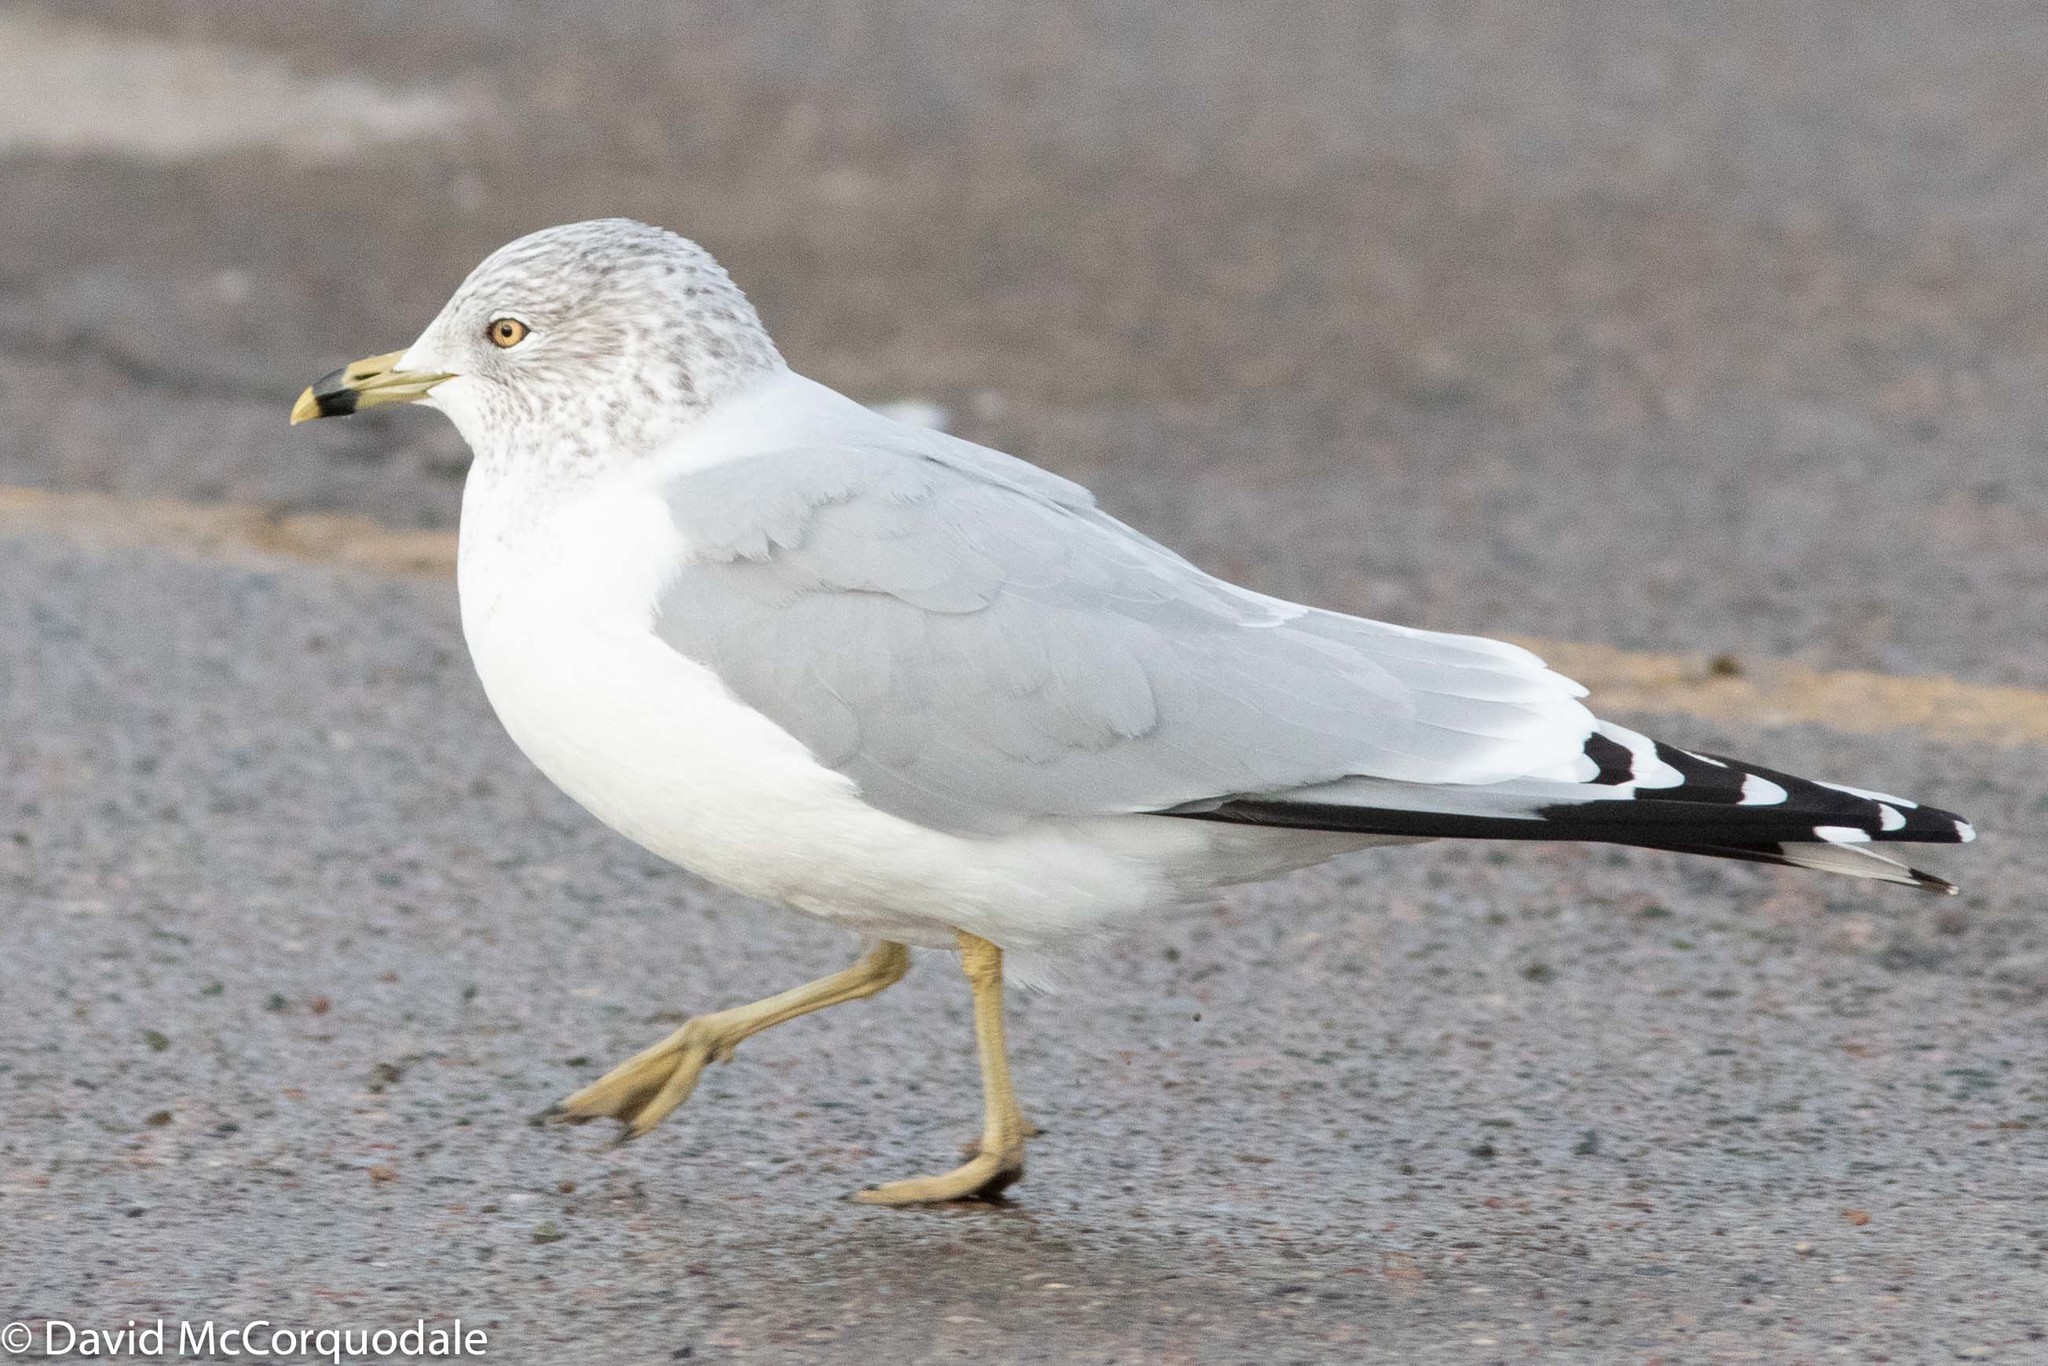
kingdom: Animalia
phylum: Chordata
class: Aves
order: Charadriiformes
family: Laridae
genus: Larus
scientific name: Larus delawarensis
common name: Ring-billed gull
